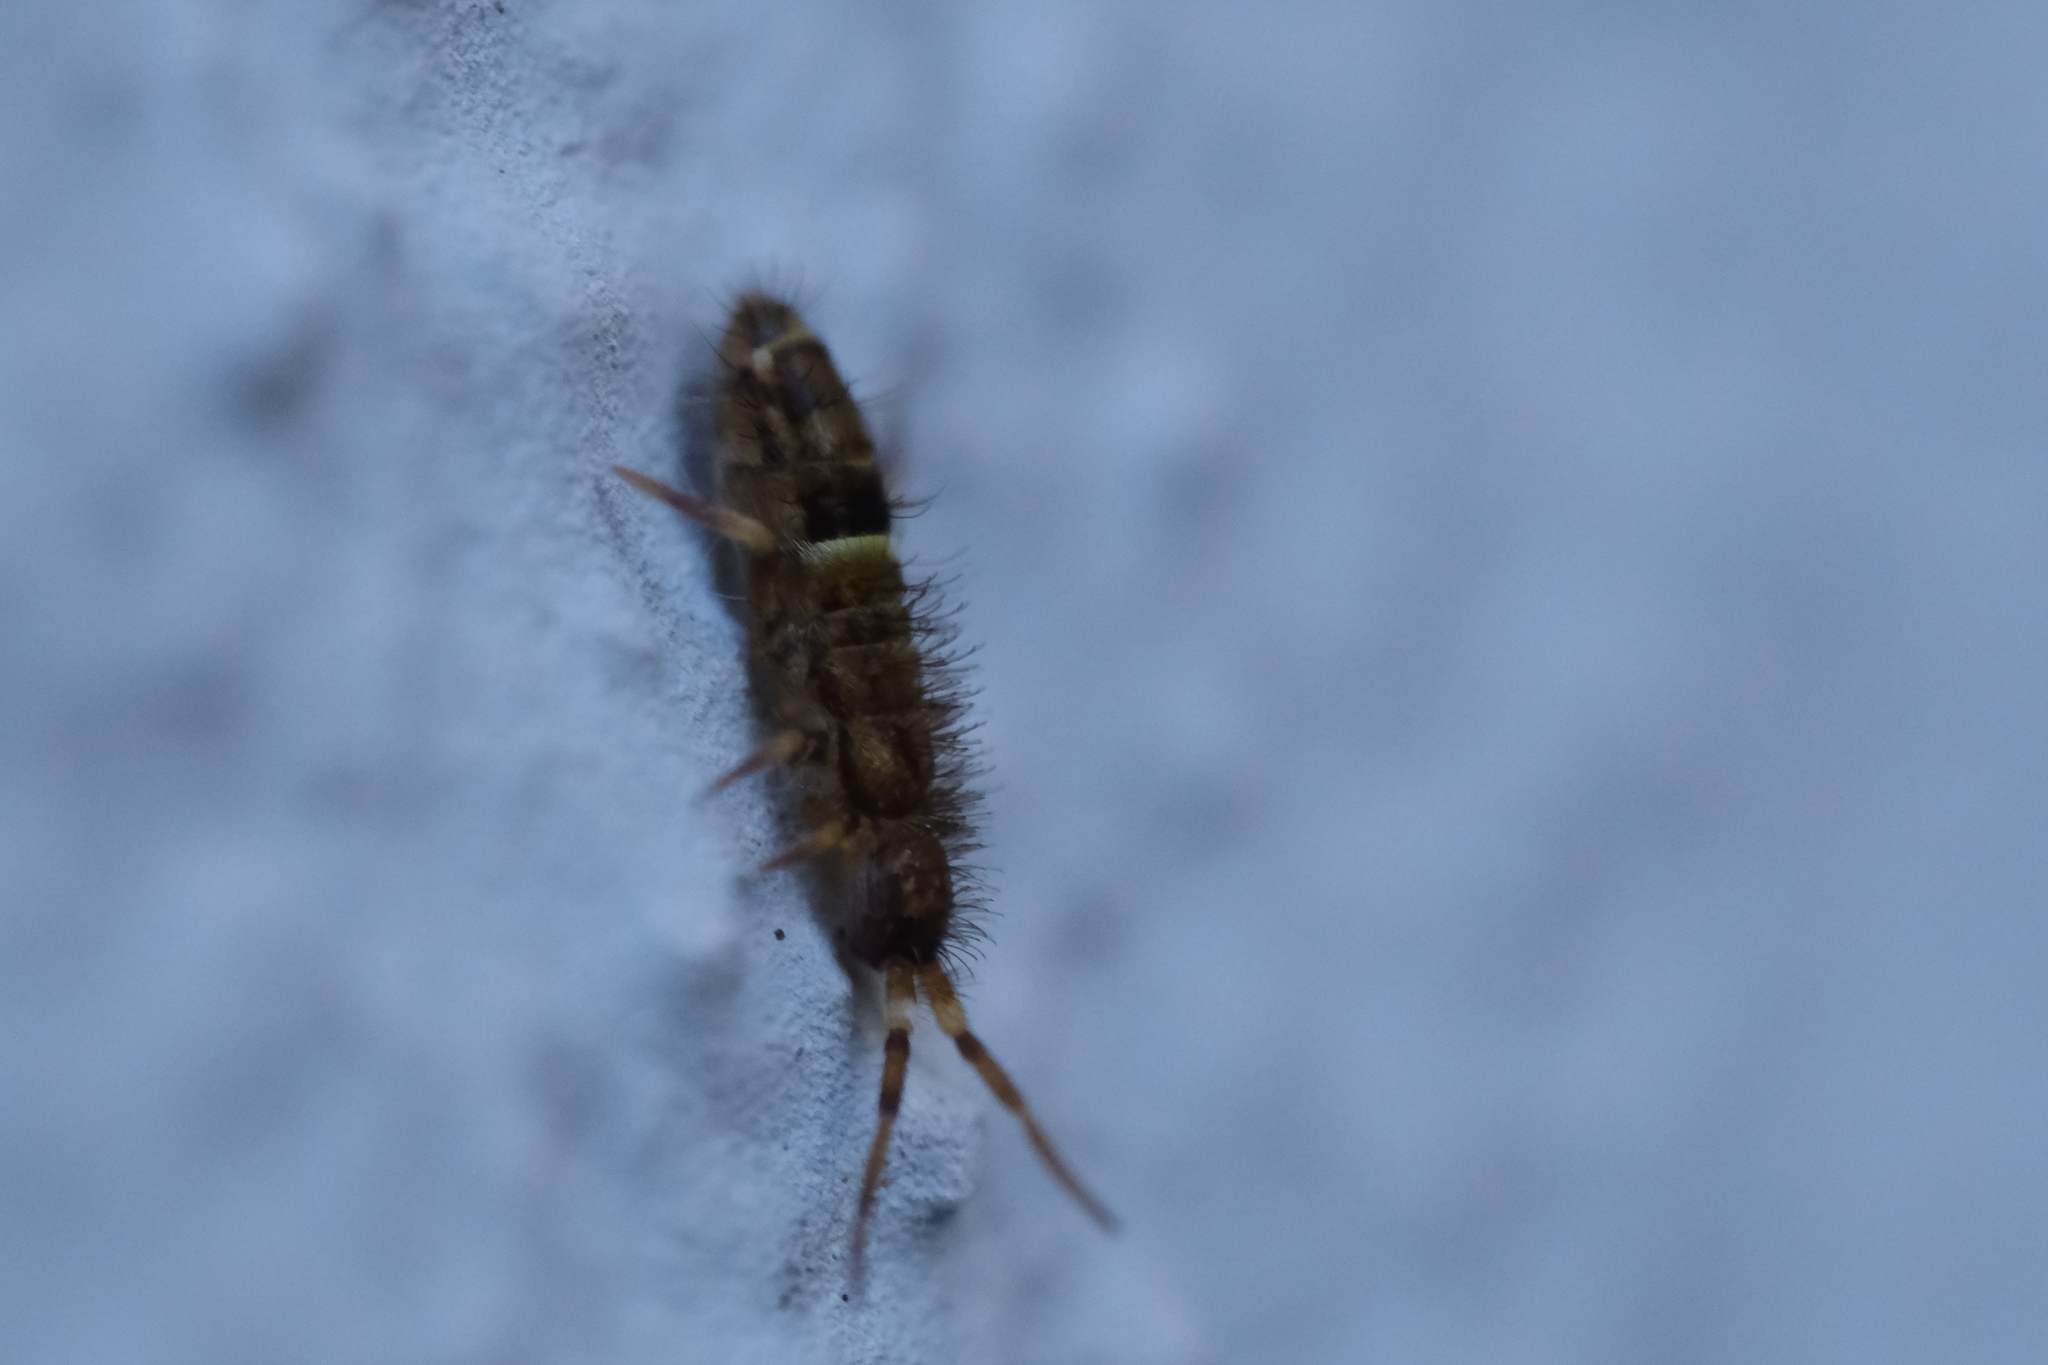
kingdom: Animalia
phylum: Arthropoda
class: Collembola
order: Entomobryomorpha
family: Orchesellidae
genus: Orchesella
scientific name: Orchesella cincta
